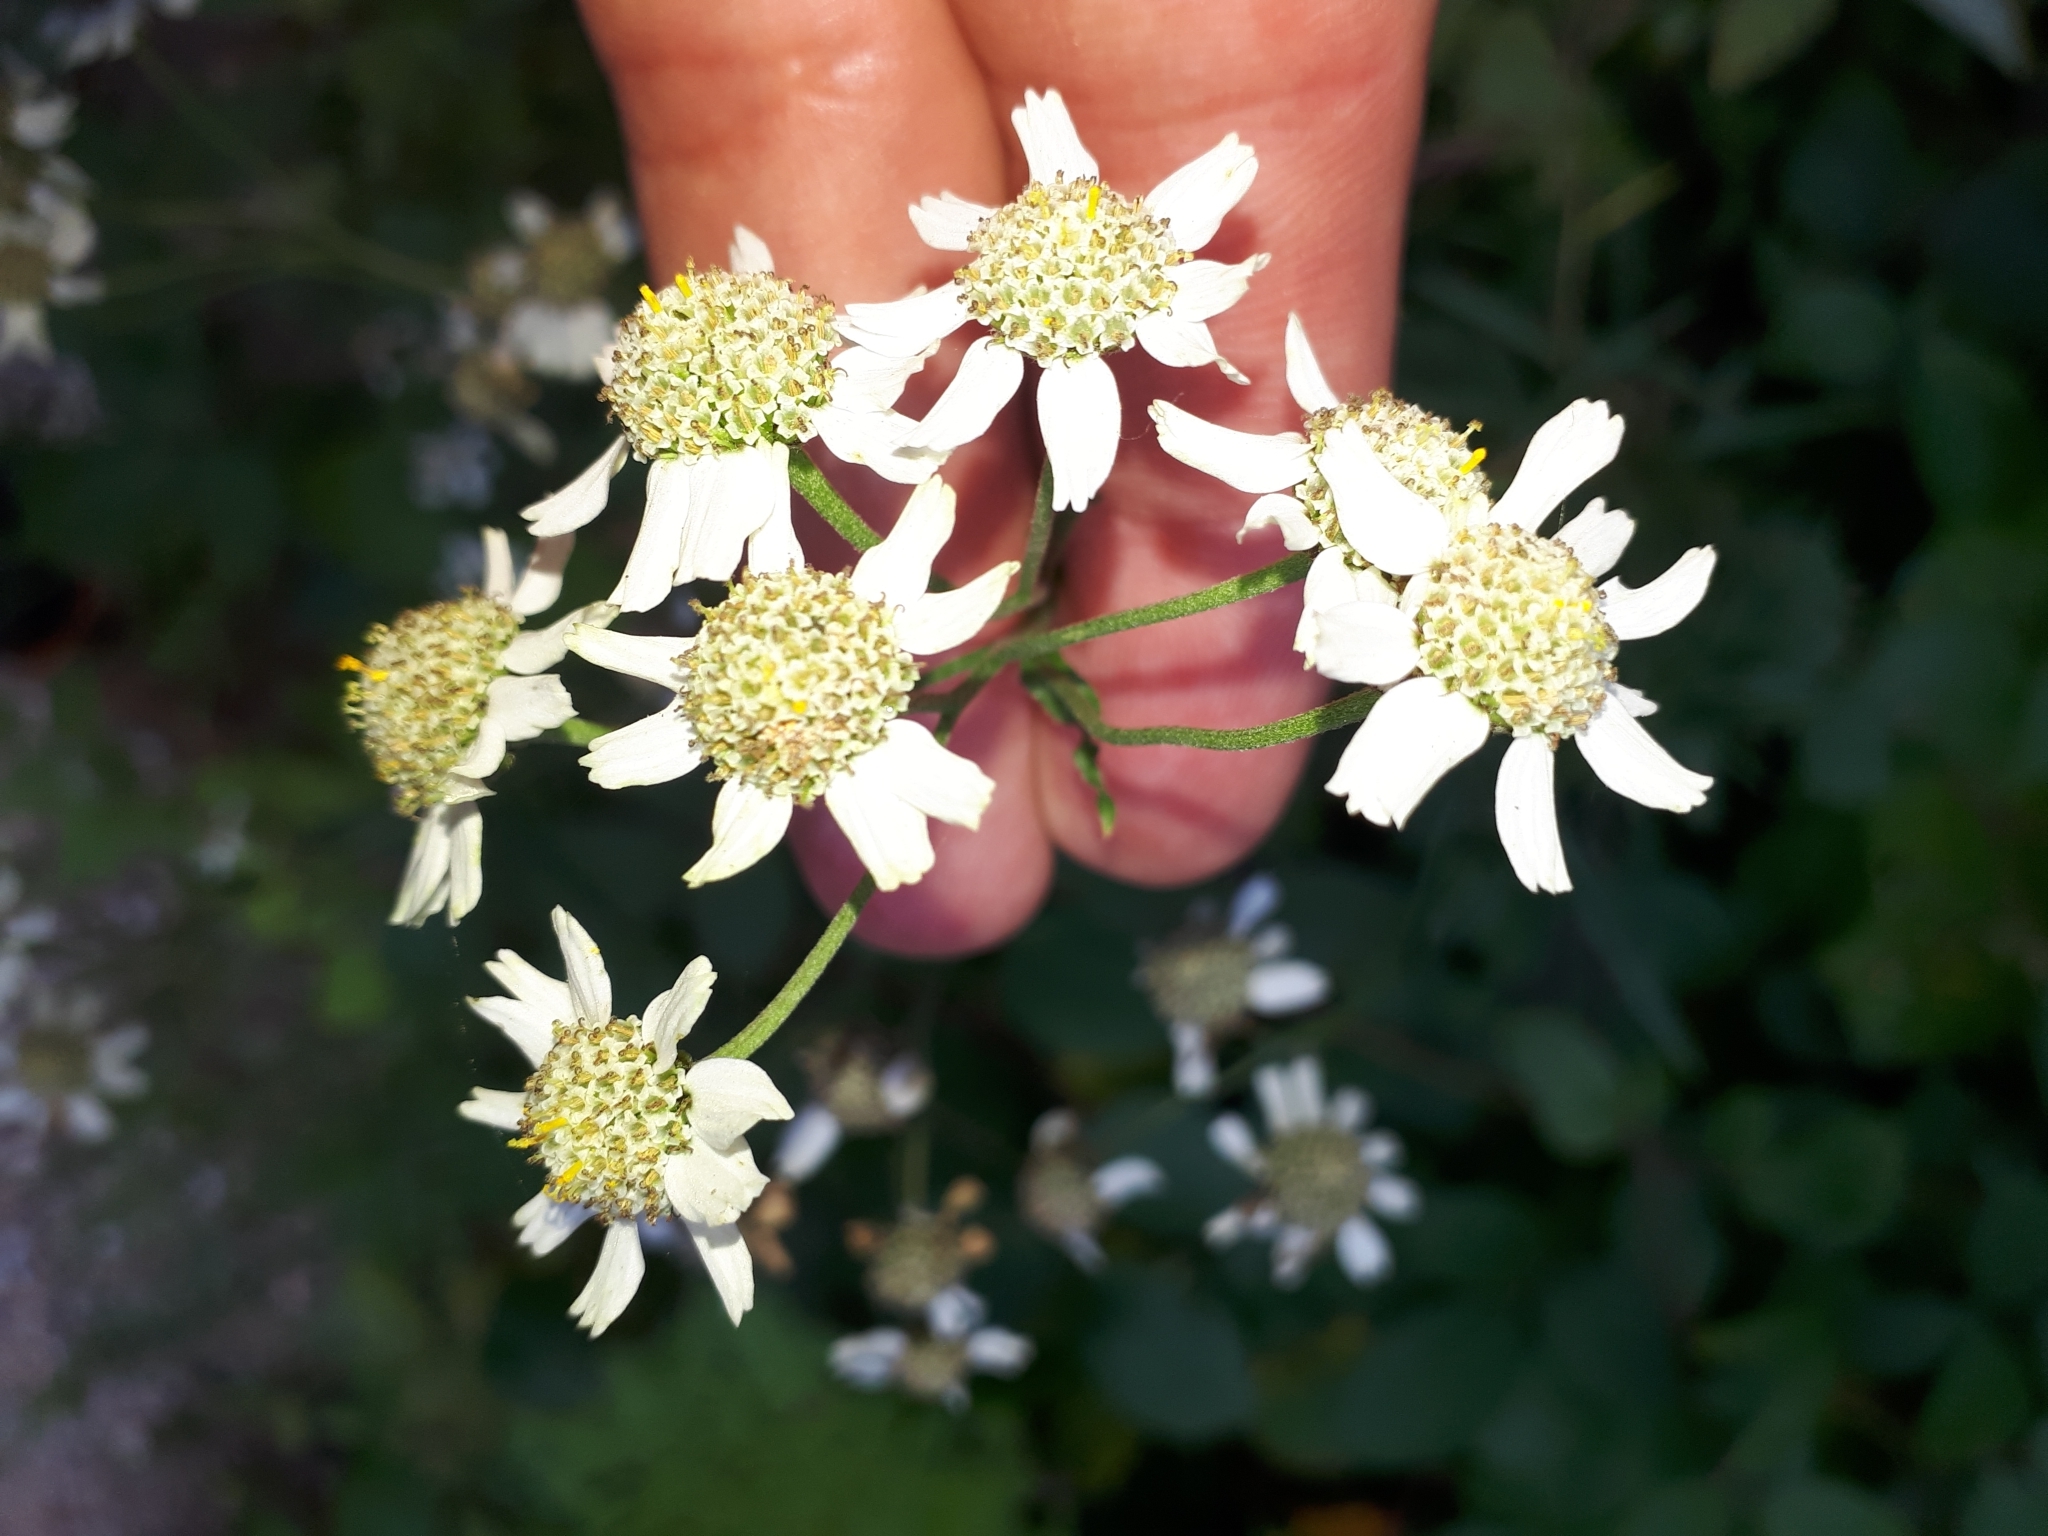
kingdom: Plantae
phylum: Tracheophyta
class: Magnoliopsida
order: Asterales
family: Asteraceae
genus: Achillea
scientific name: Achillea ptarmica
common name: Sneezeweed
